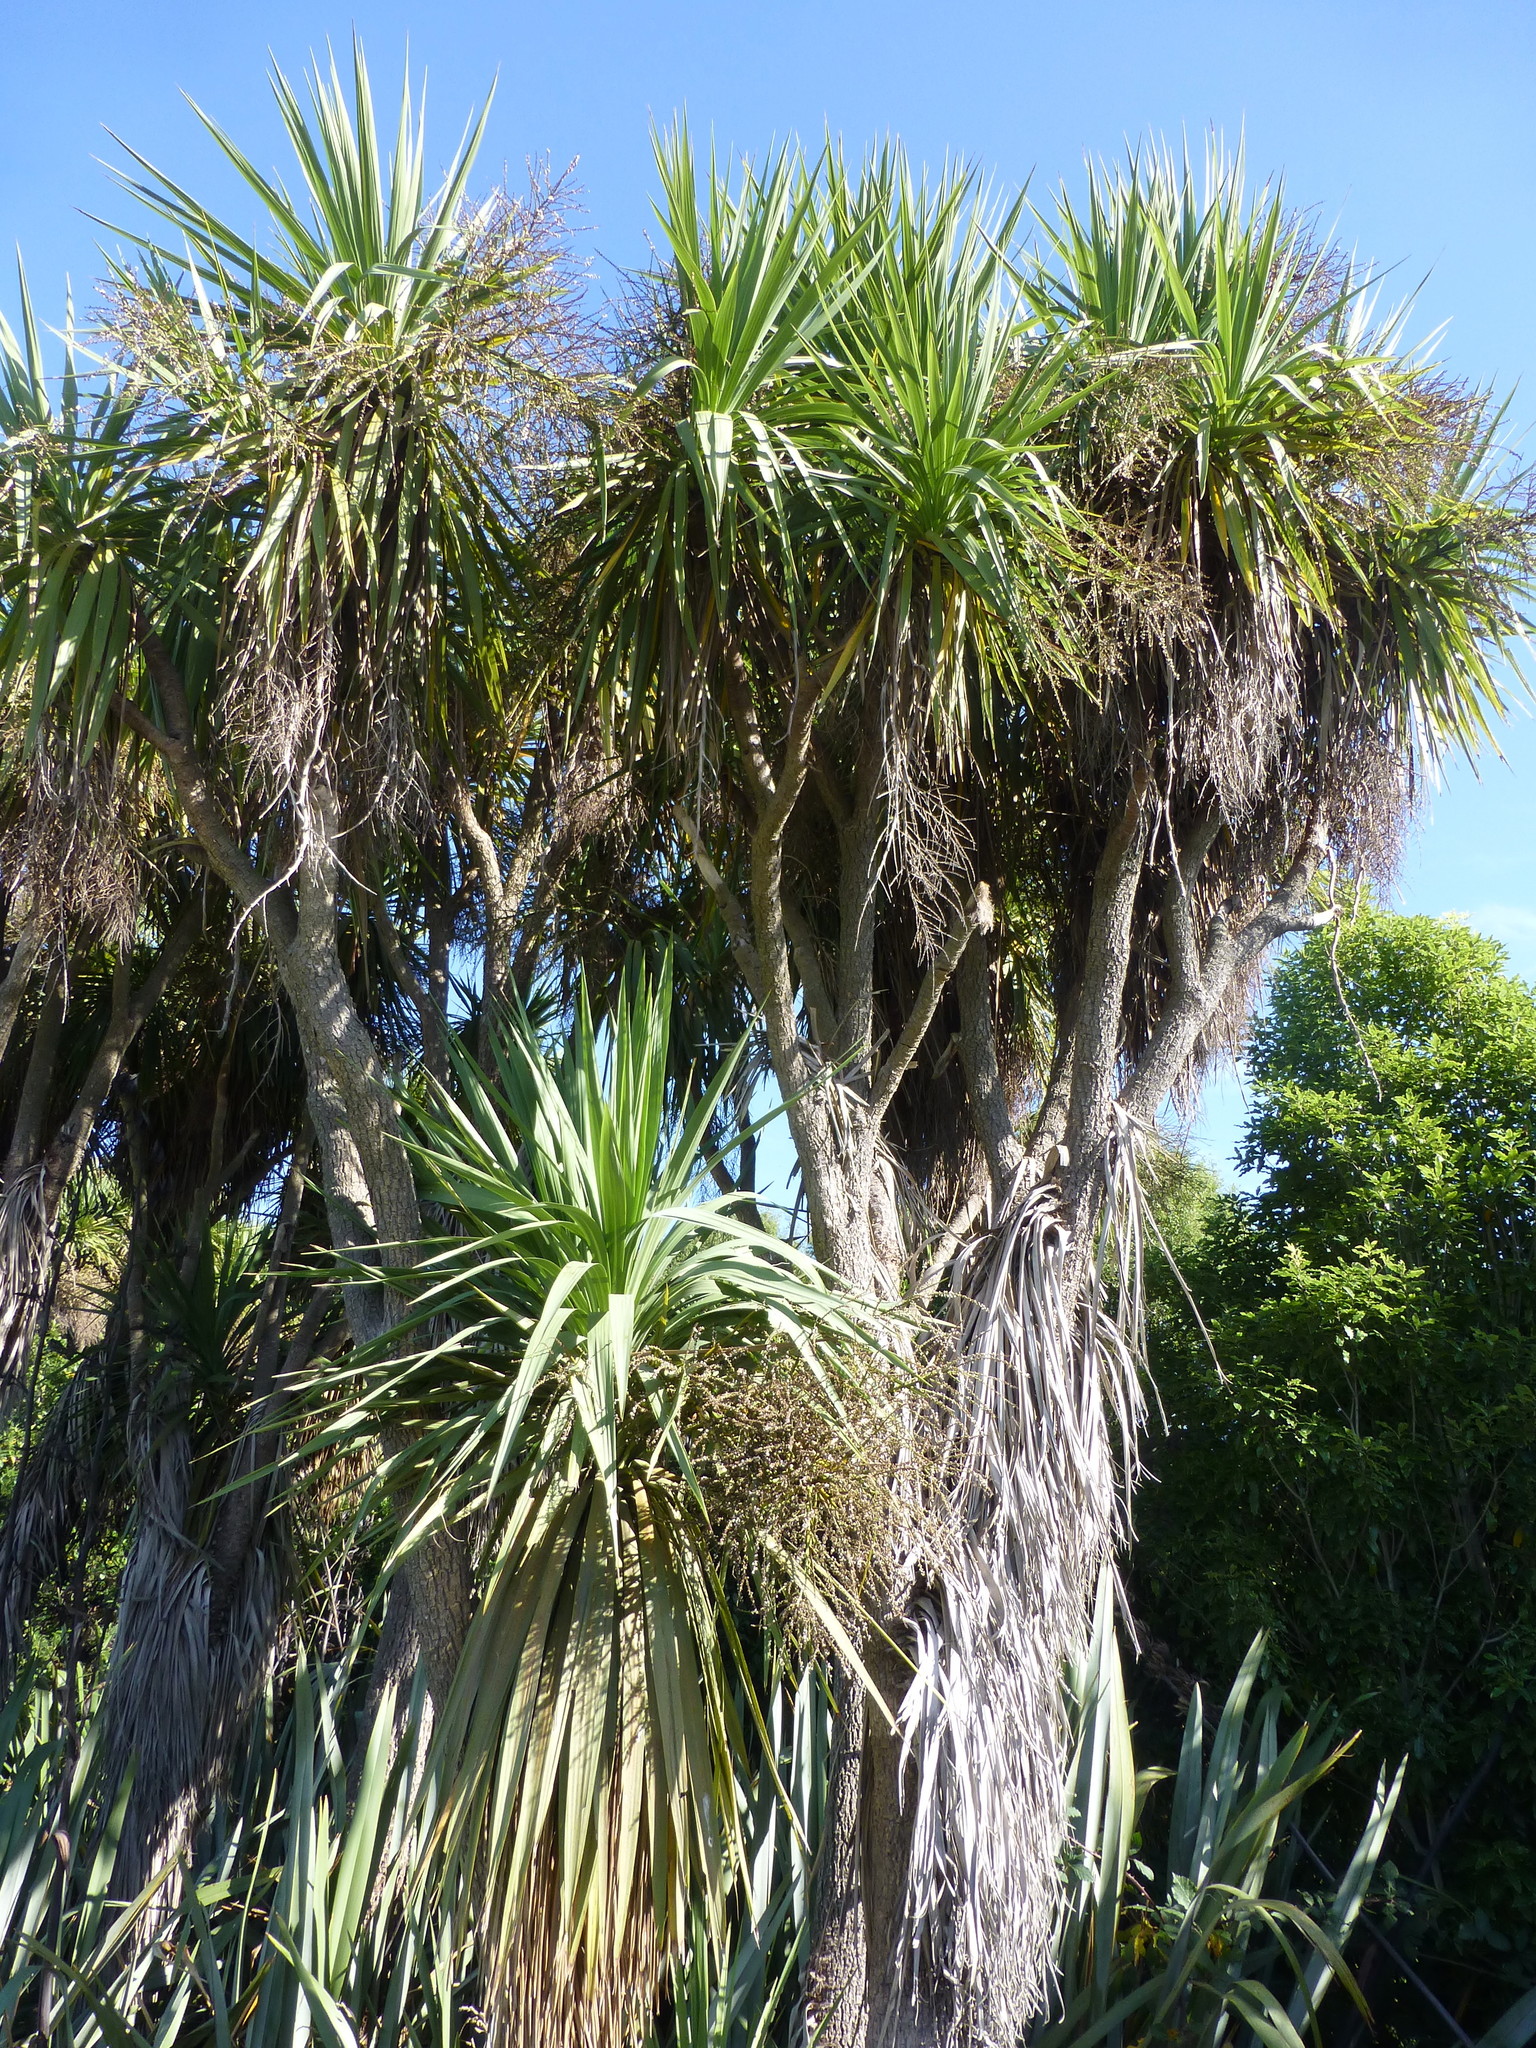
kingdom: Plantae
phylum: Tracheophyta
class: Liliopsida
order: Asparagales
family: Asparagaceae
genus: Cordyline
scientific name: Cordyline australis
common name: Cabbage-palm
